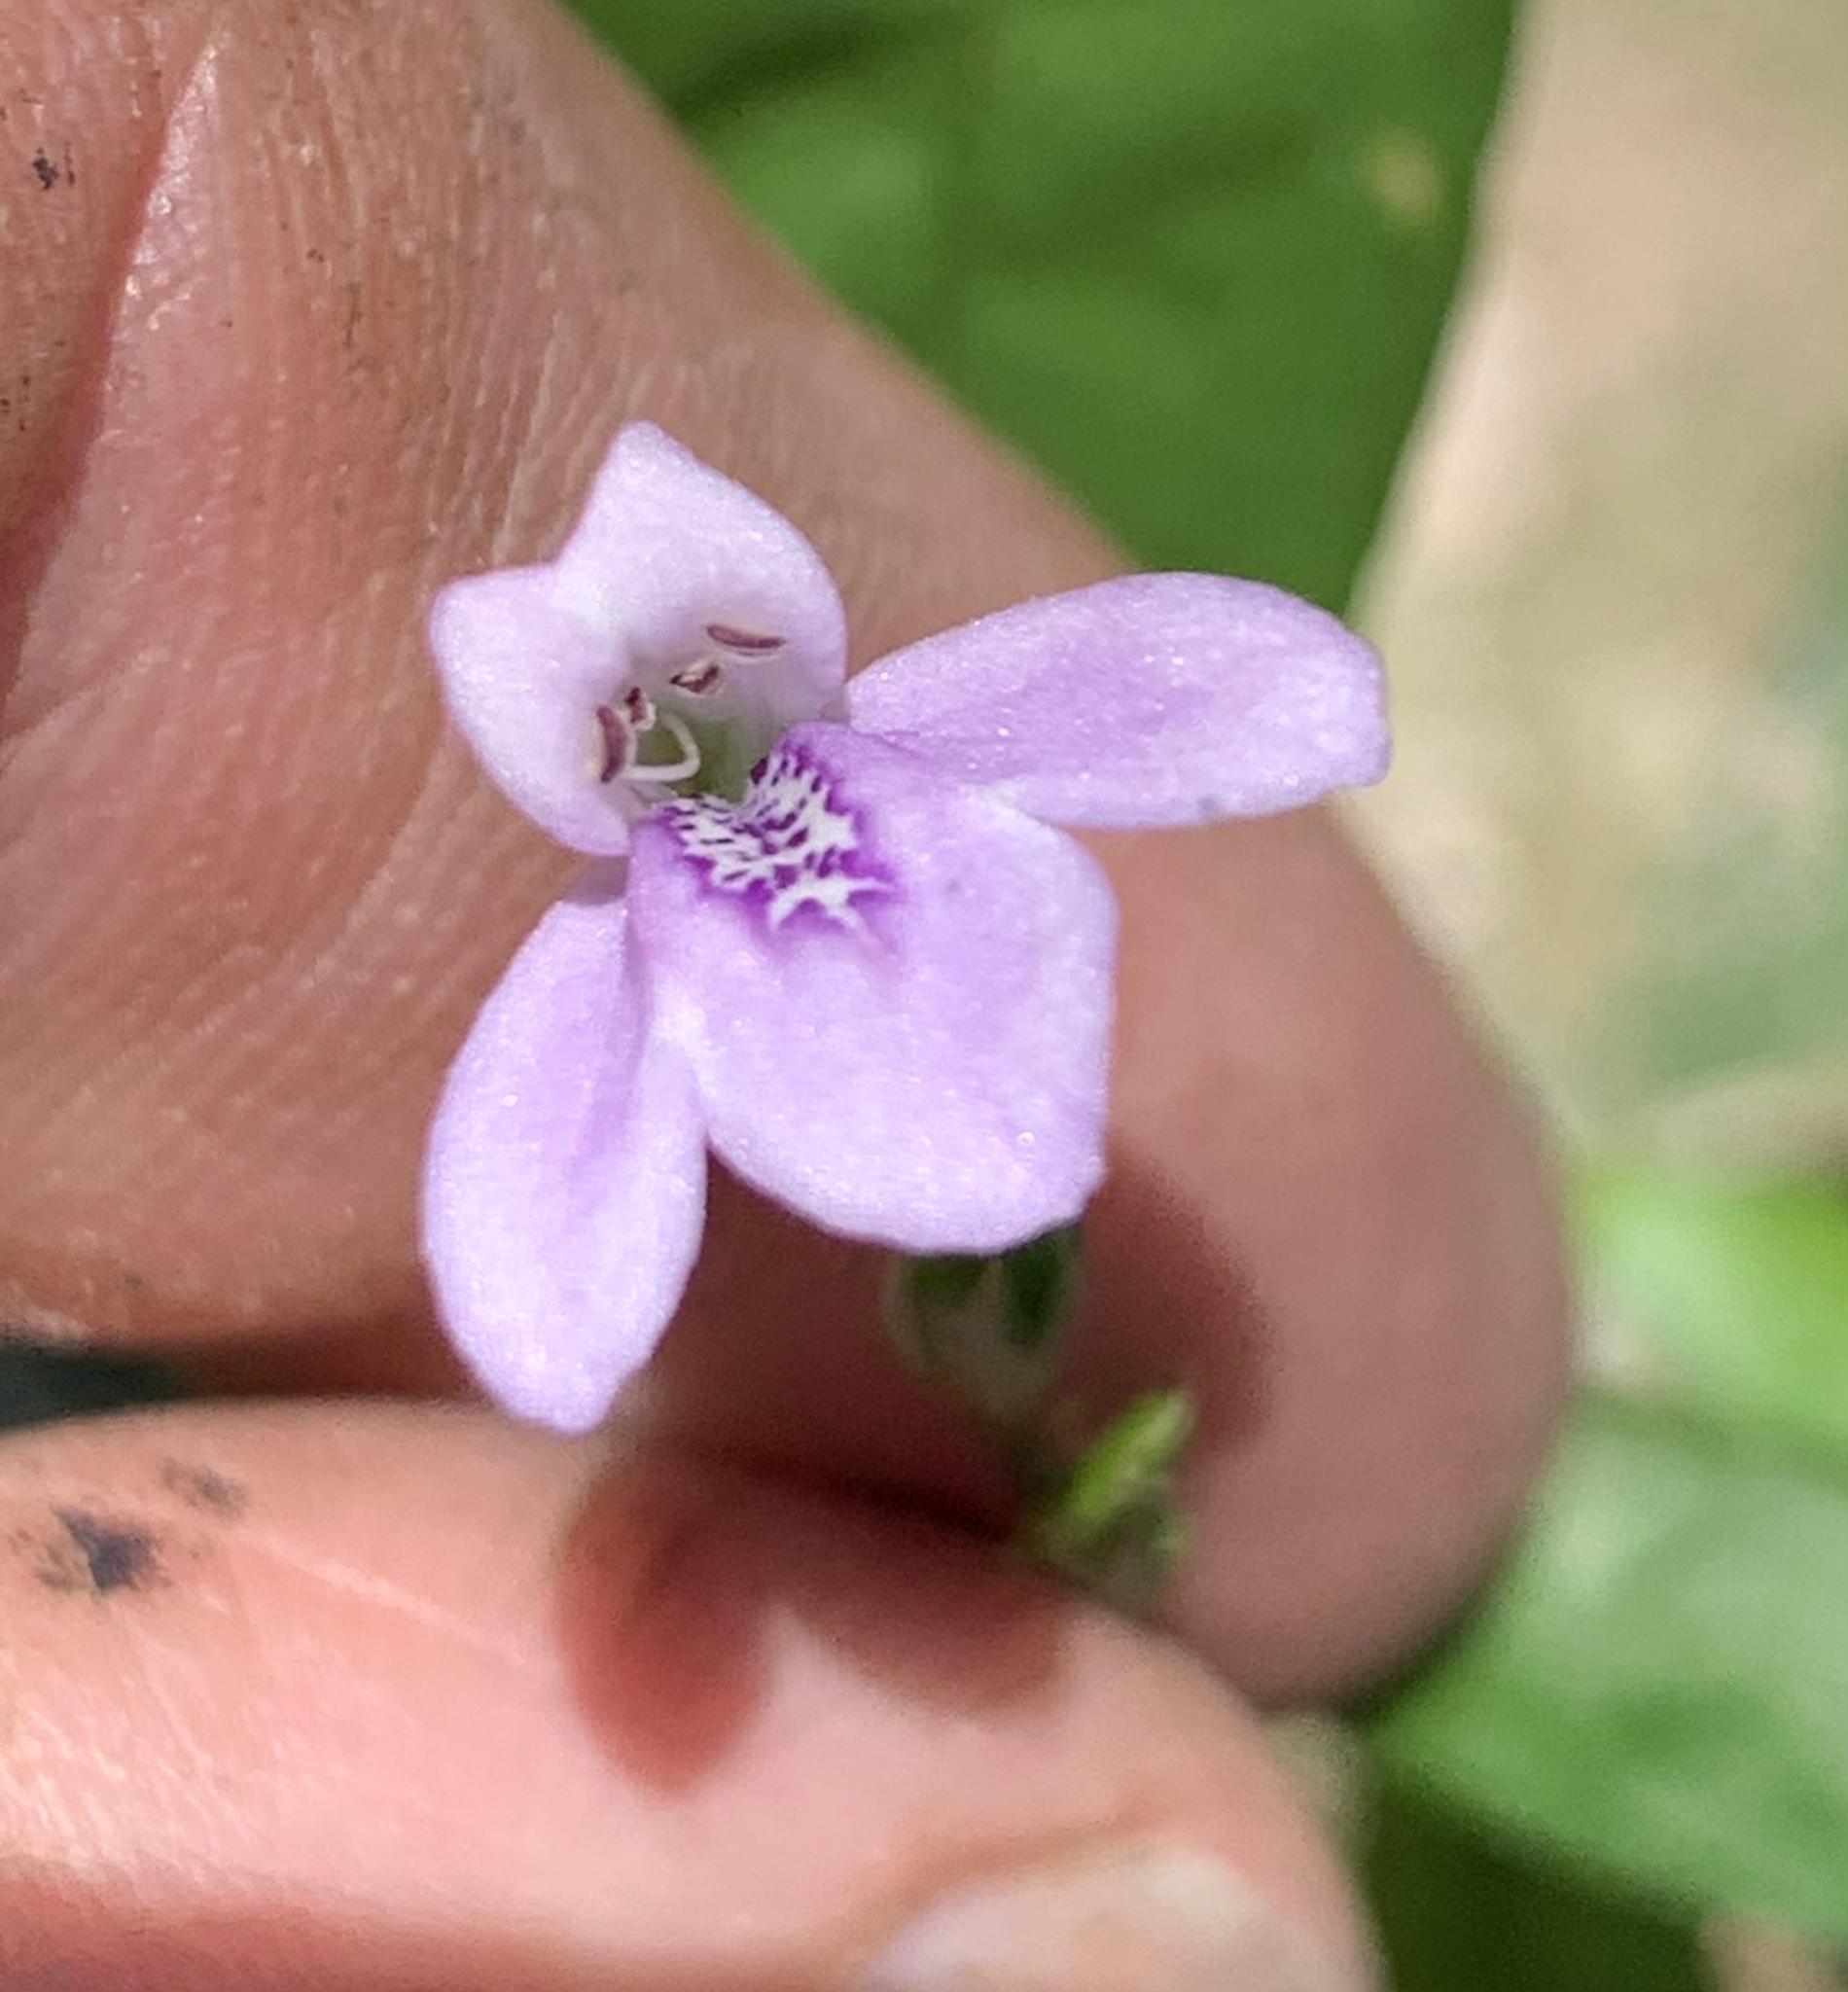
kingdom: Plantae
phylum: Tracheophyta
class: Magnoliopsida
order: Lamiales
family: Acanthaceae
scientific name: Acanthaceae
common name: Acanthaceae
